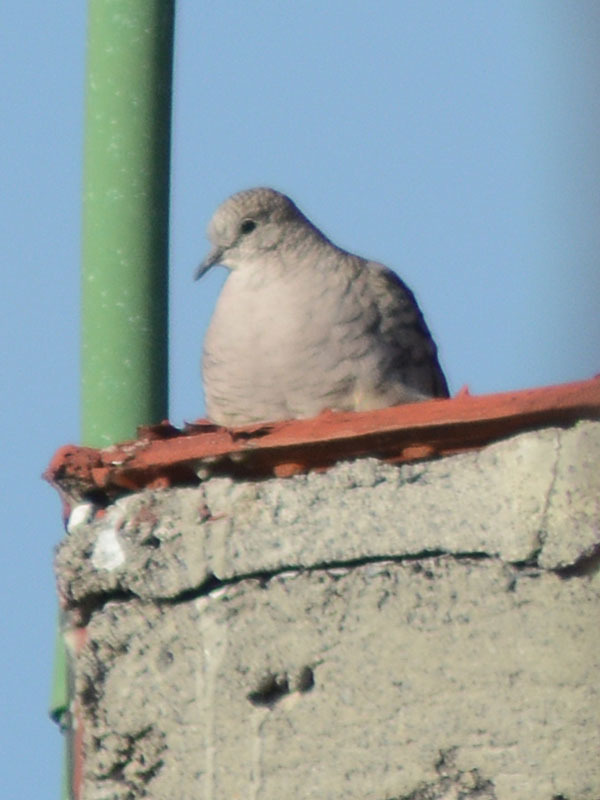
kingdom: Animalia
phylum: Chordata
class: Aves
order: Columbiformes
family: Columbidae
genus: Columbina
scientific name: Columbina inca
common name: Inca dove
